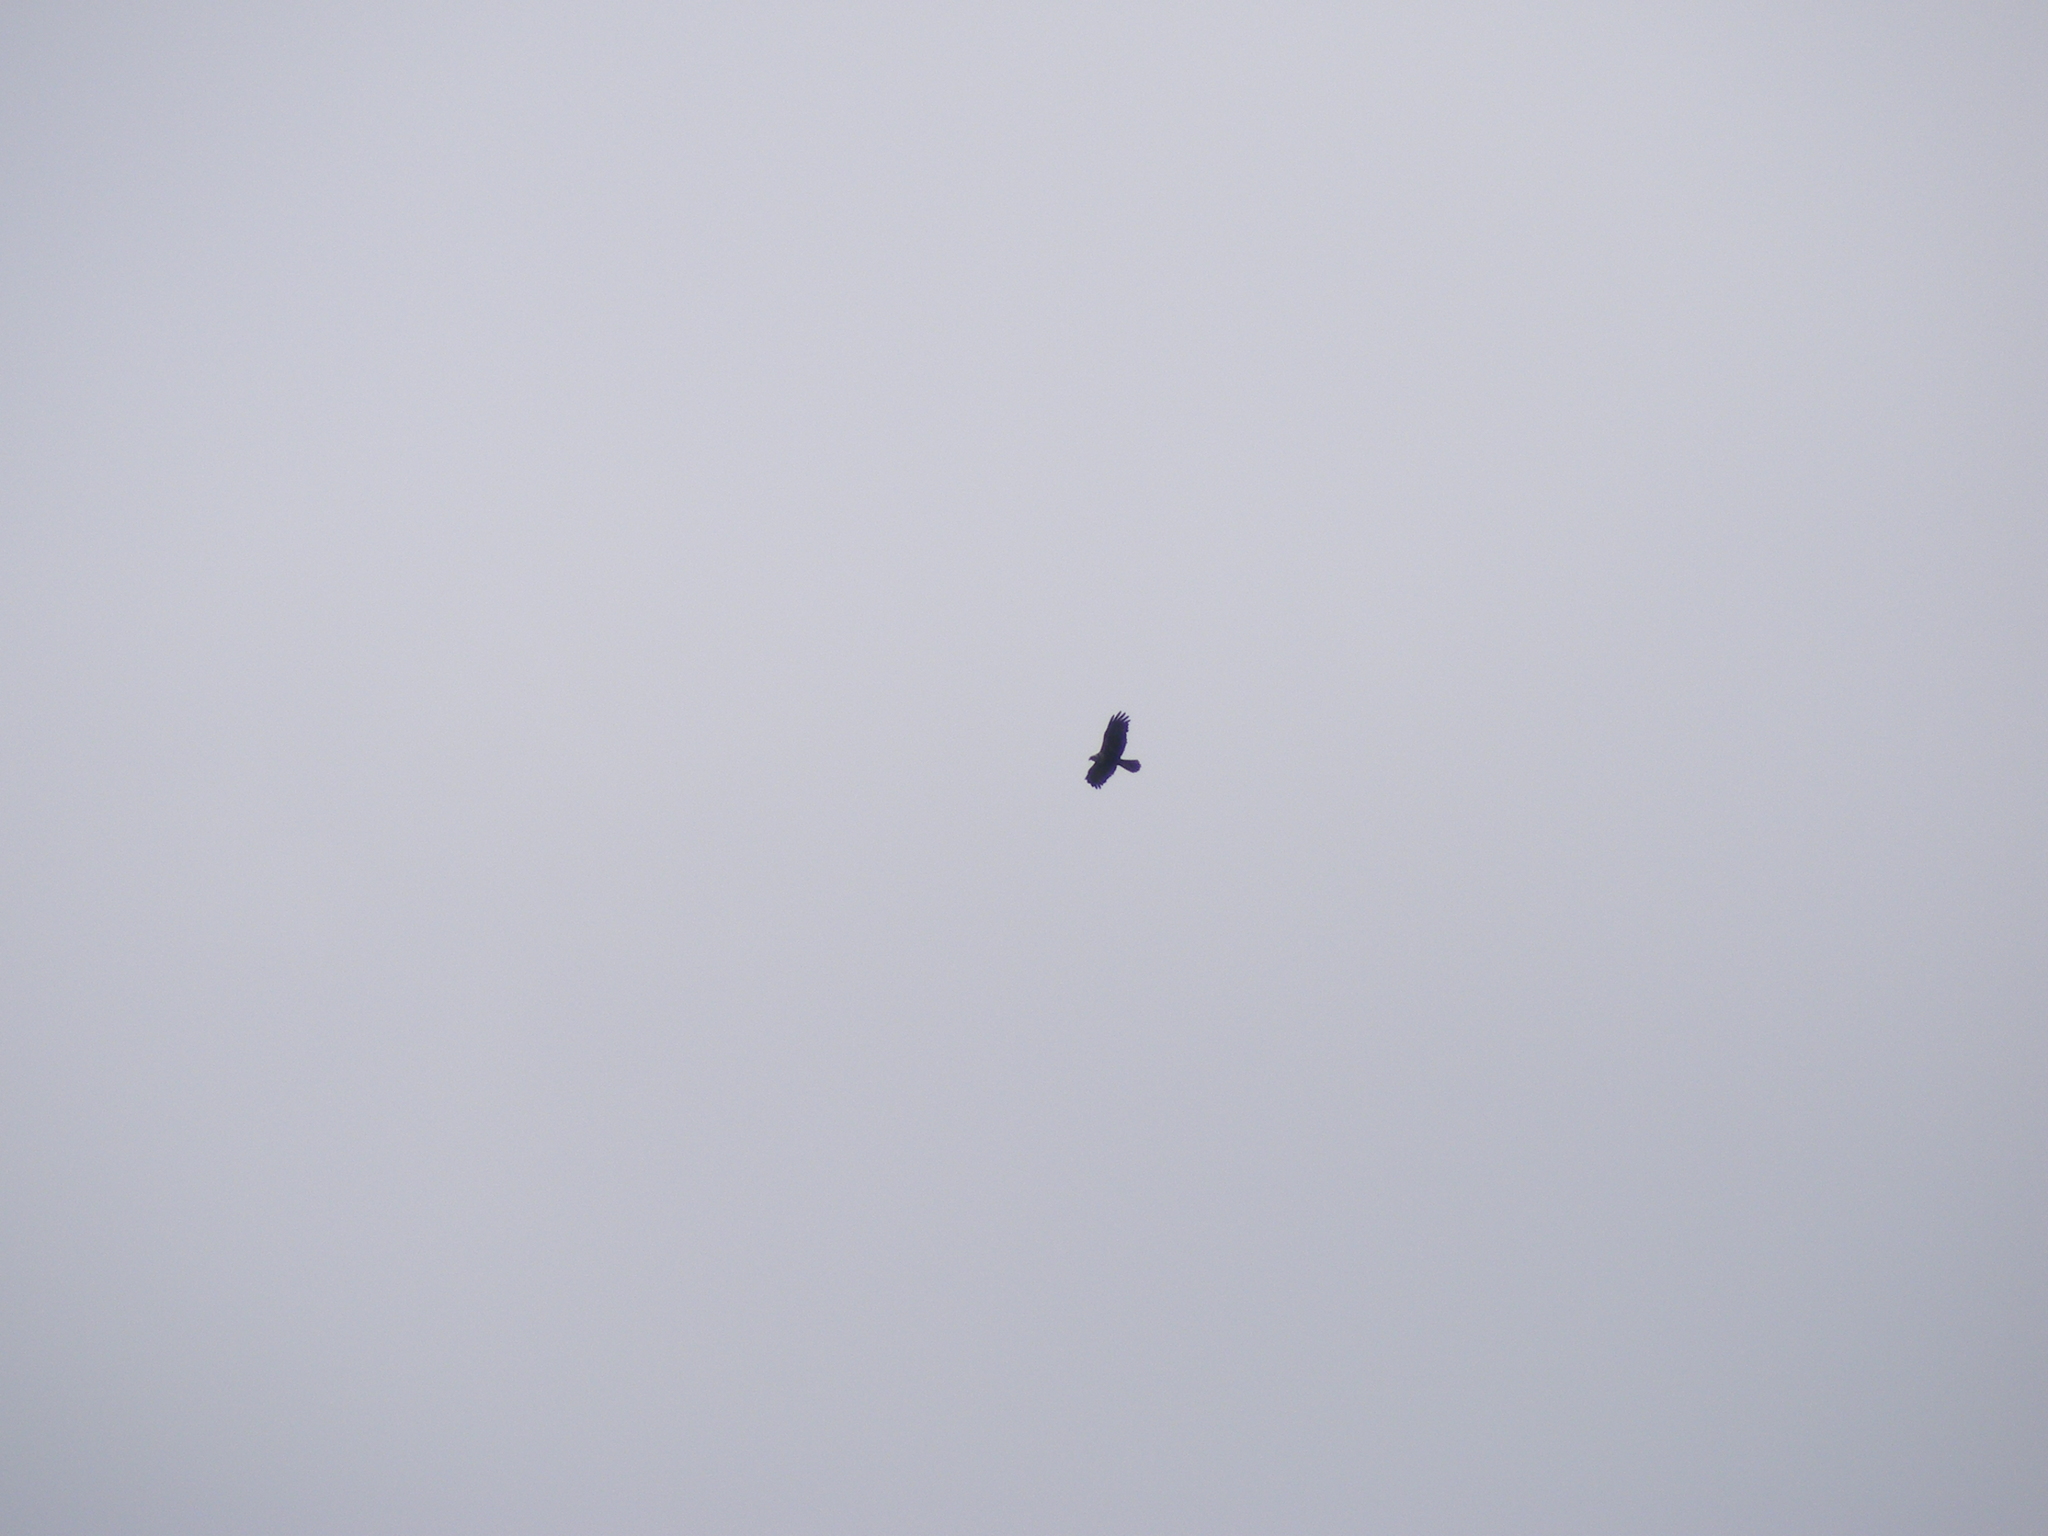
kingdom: Animalia
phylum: Chordata
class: Aves
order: Accipitriformes
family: Accipitridae
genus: Circus
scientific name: Circus aeruginosus
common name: Western marsh harrier
